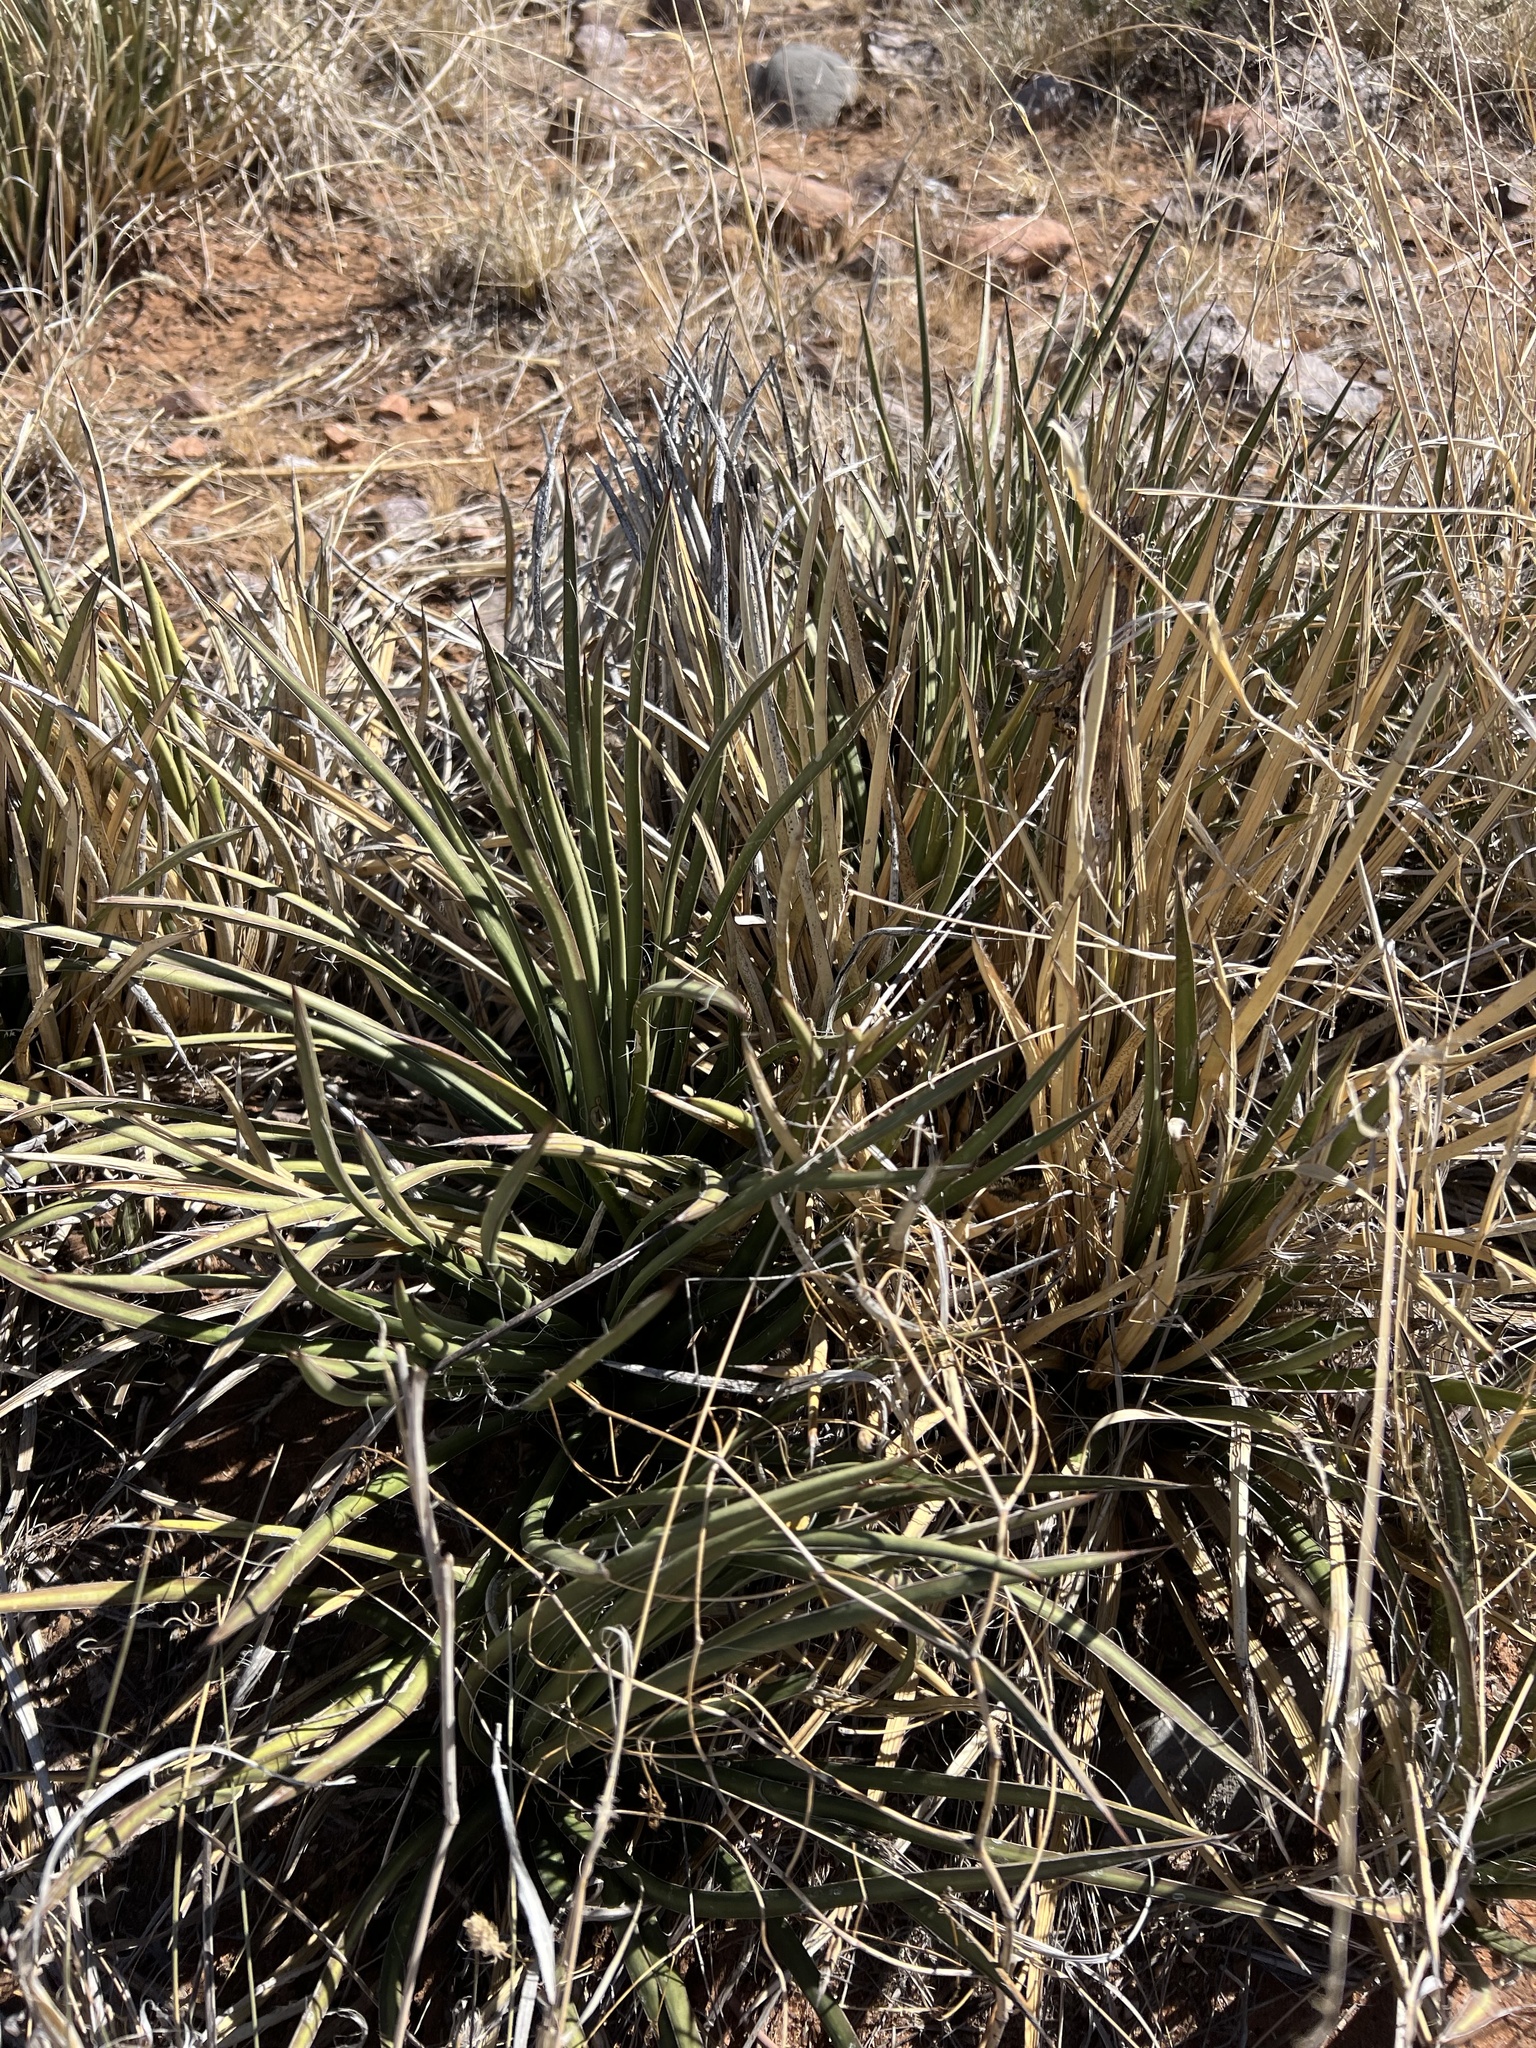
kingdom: Plantae
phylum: Tracheophyta
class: Liliopsida
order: Asparagales
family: Asparagaceae
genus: Agave
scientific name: Agave schottii
